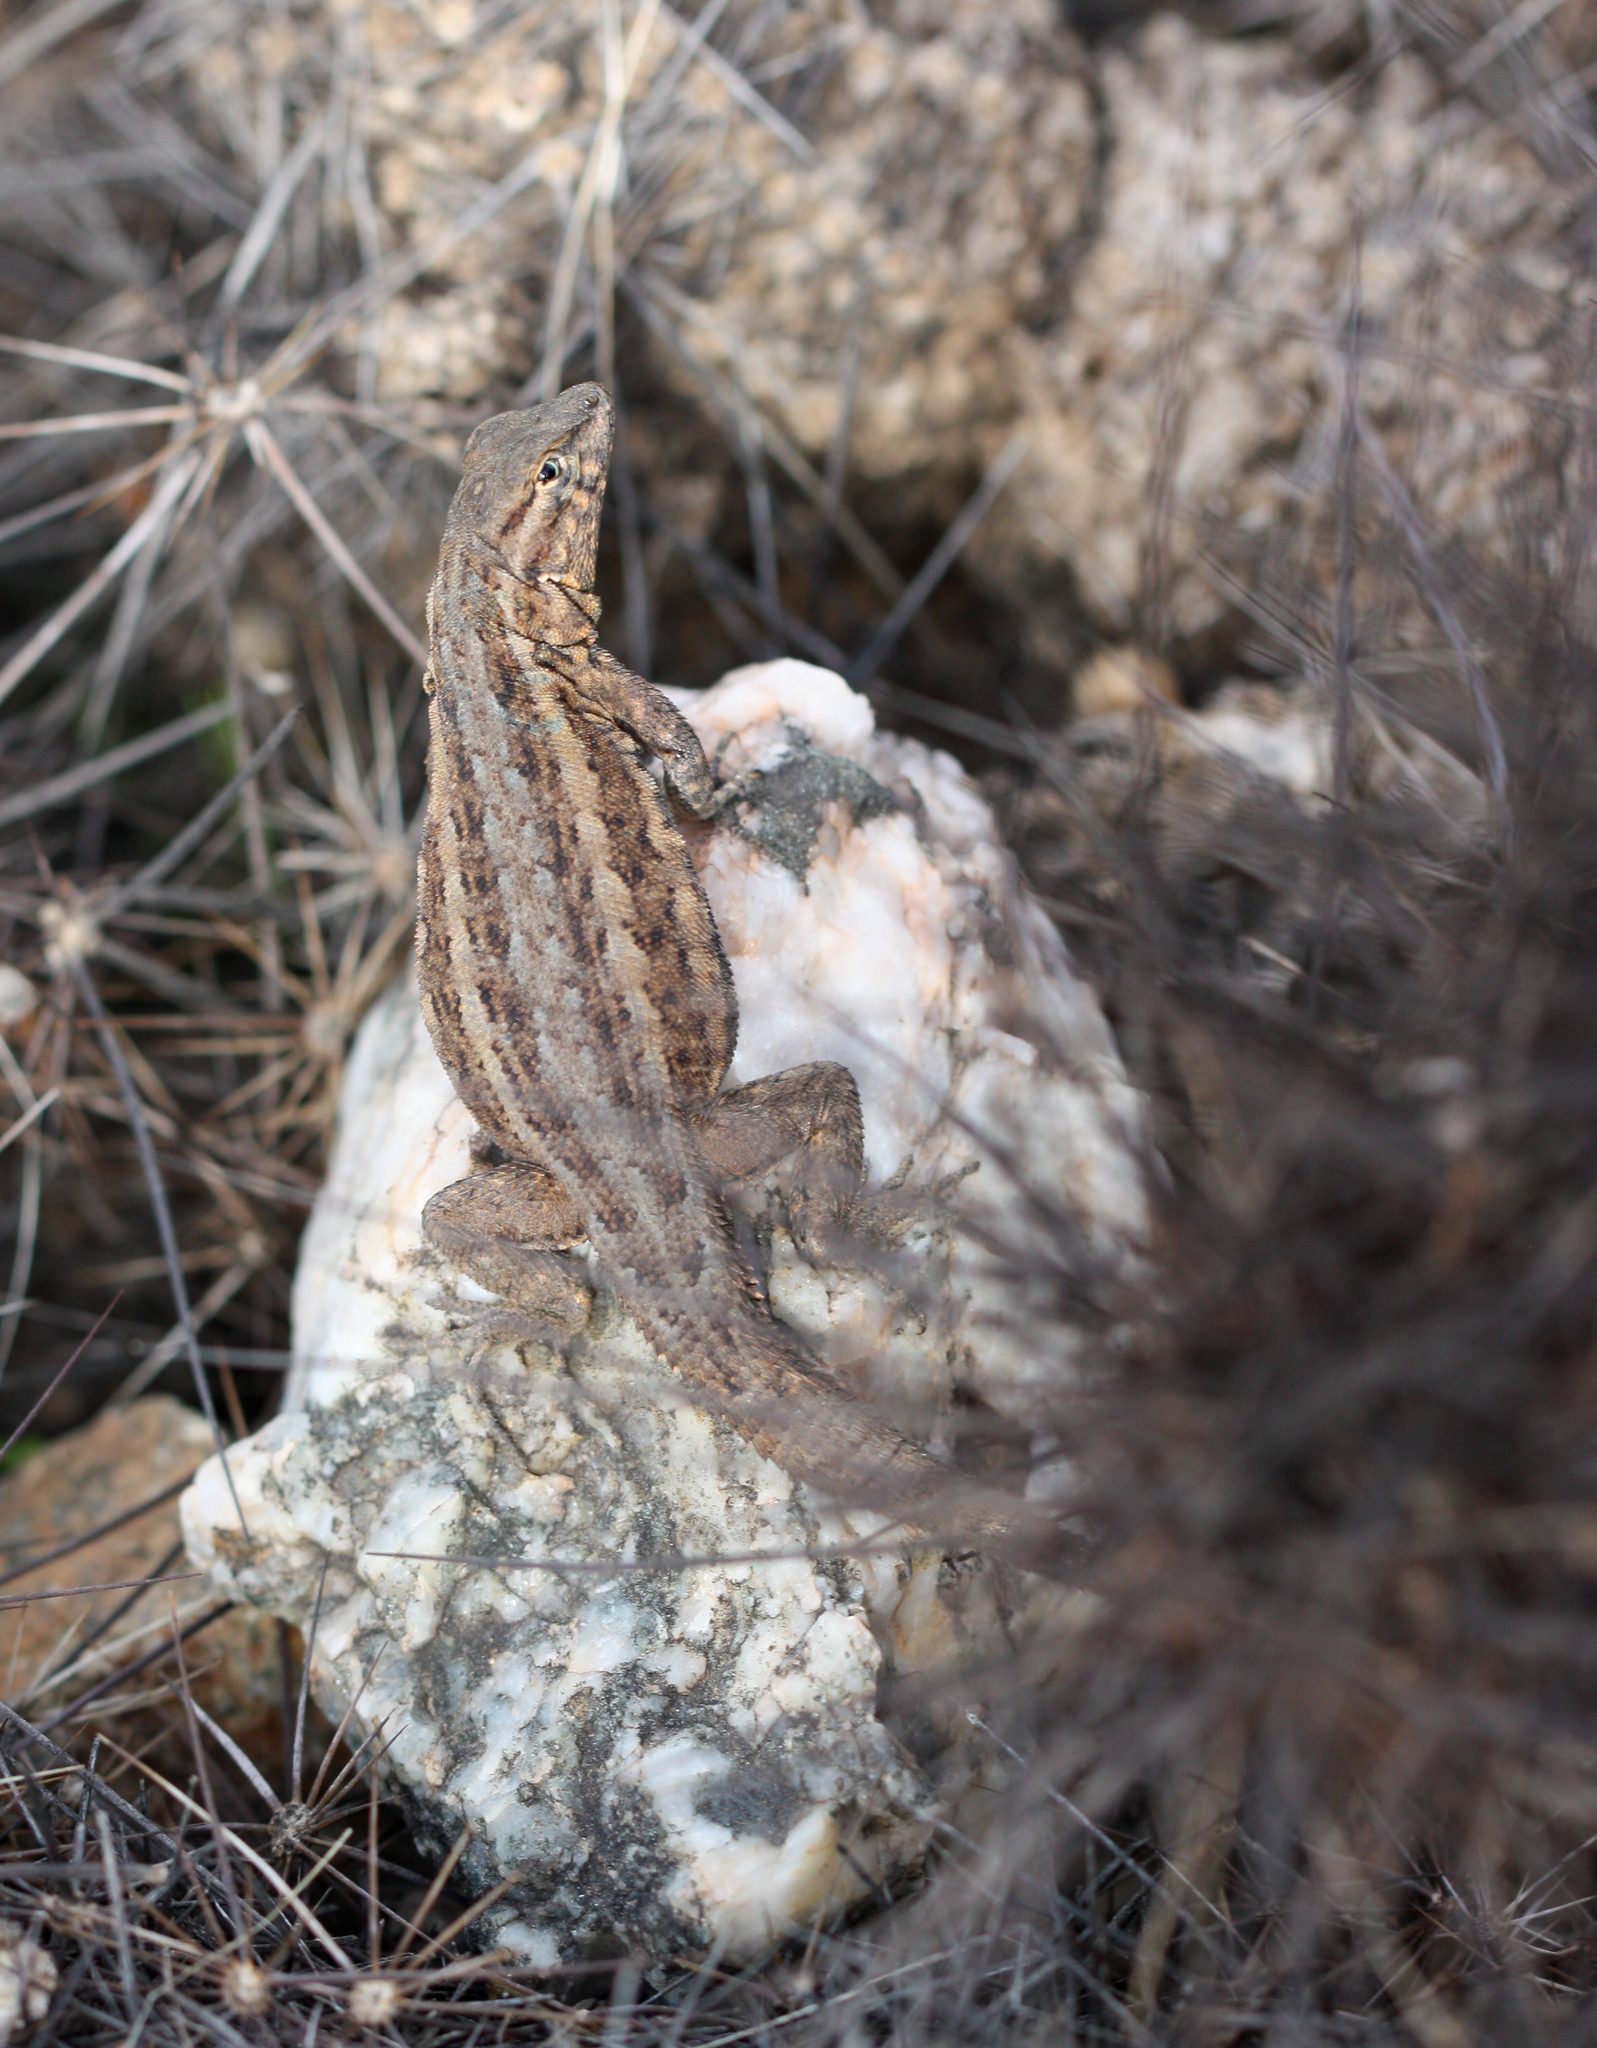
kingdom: Animalia
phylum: Chordata
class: Squamata
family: Phrynosomatidae
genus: Uta
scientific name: Uta stansburiana
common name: Side-blotched lizard
